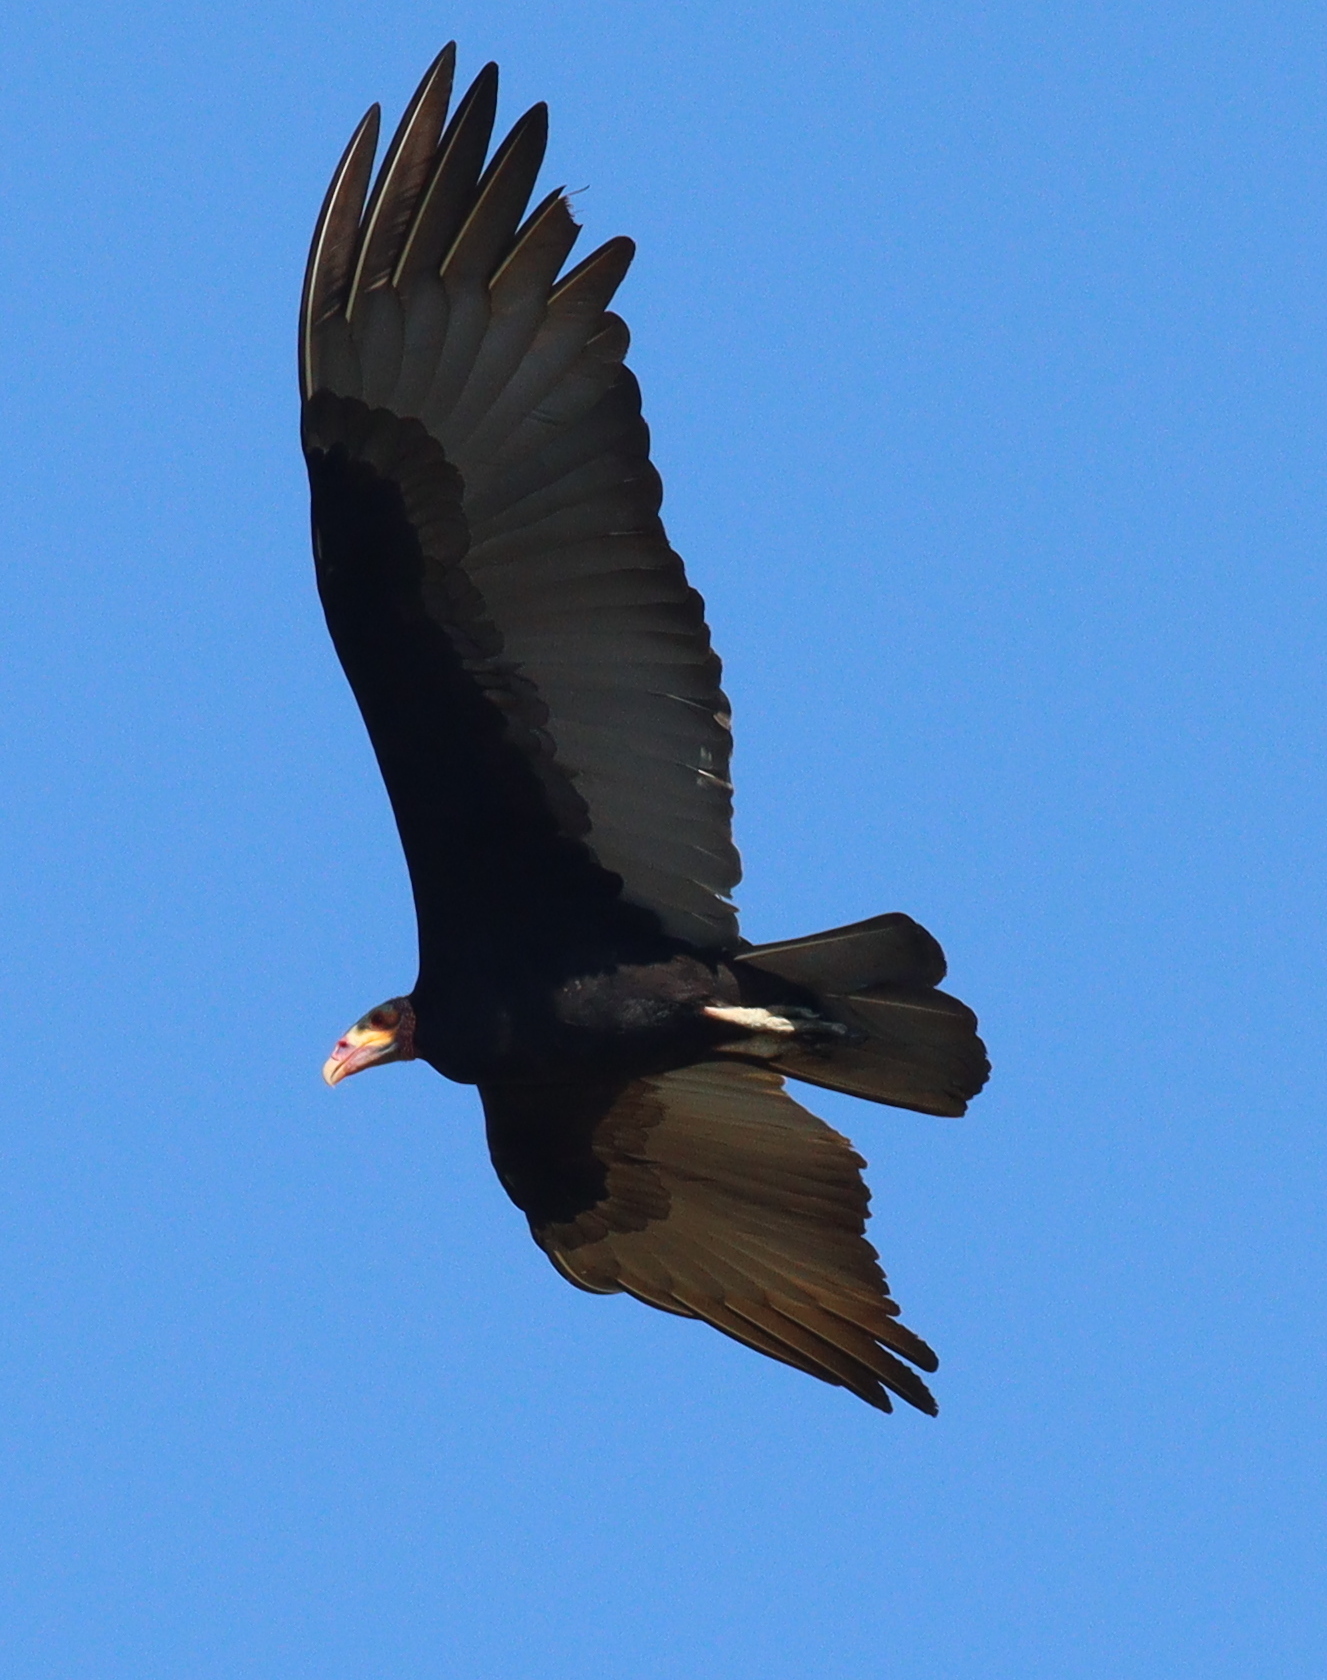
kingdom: Animalia
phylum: Chordata
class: Aves
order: Accipitriformes
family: Cathartidae
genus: Cathartes
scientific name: Cathartes burrovianus
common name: Lesser yellow-headed vulture
